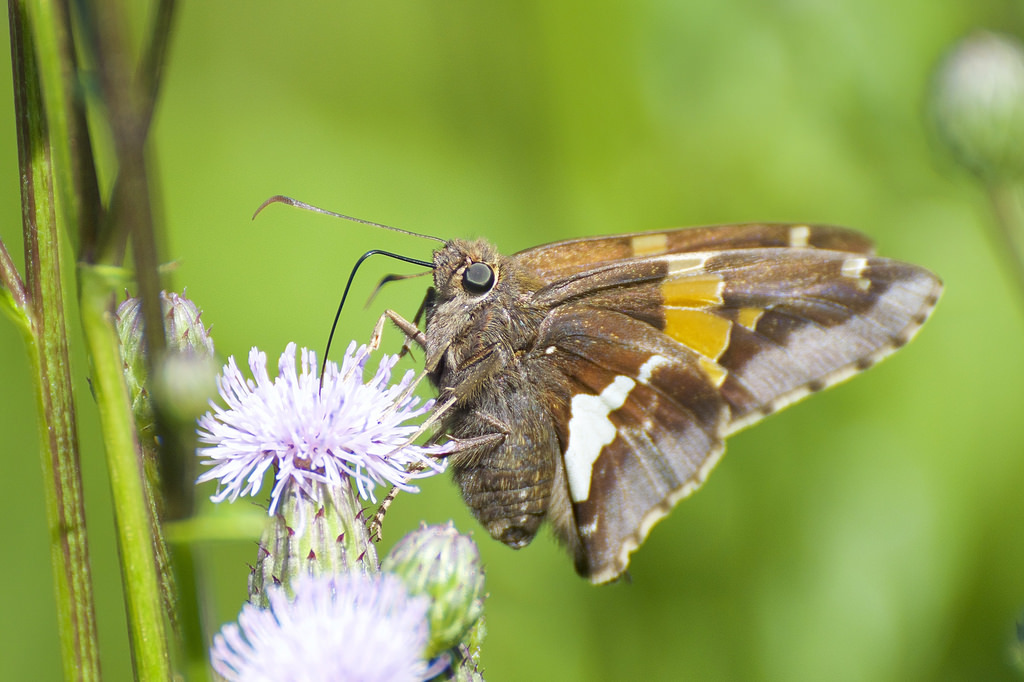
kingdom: Animalia
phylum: Arthropoda
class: Insecta
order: Lepidoptera
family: Hesperiidae
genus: Epargyreus
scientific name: Epargyreus clarus
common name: Silver-spotted skipper
